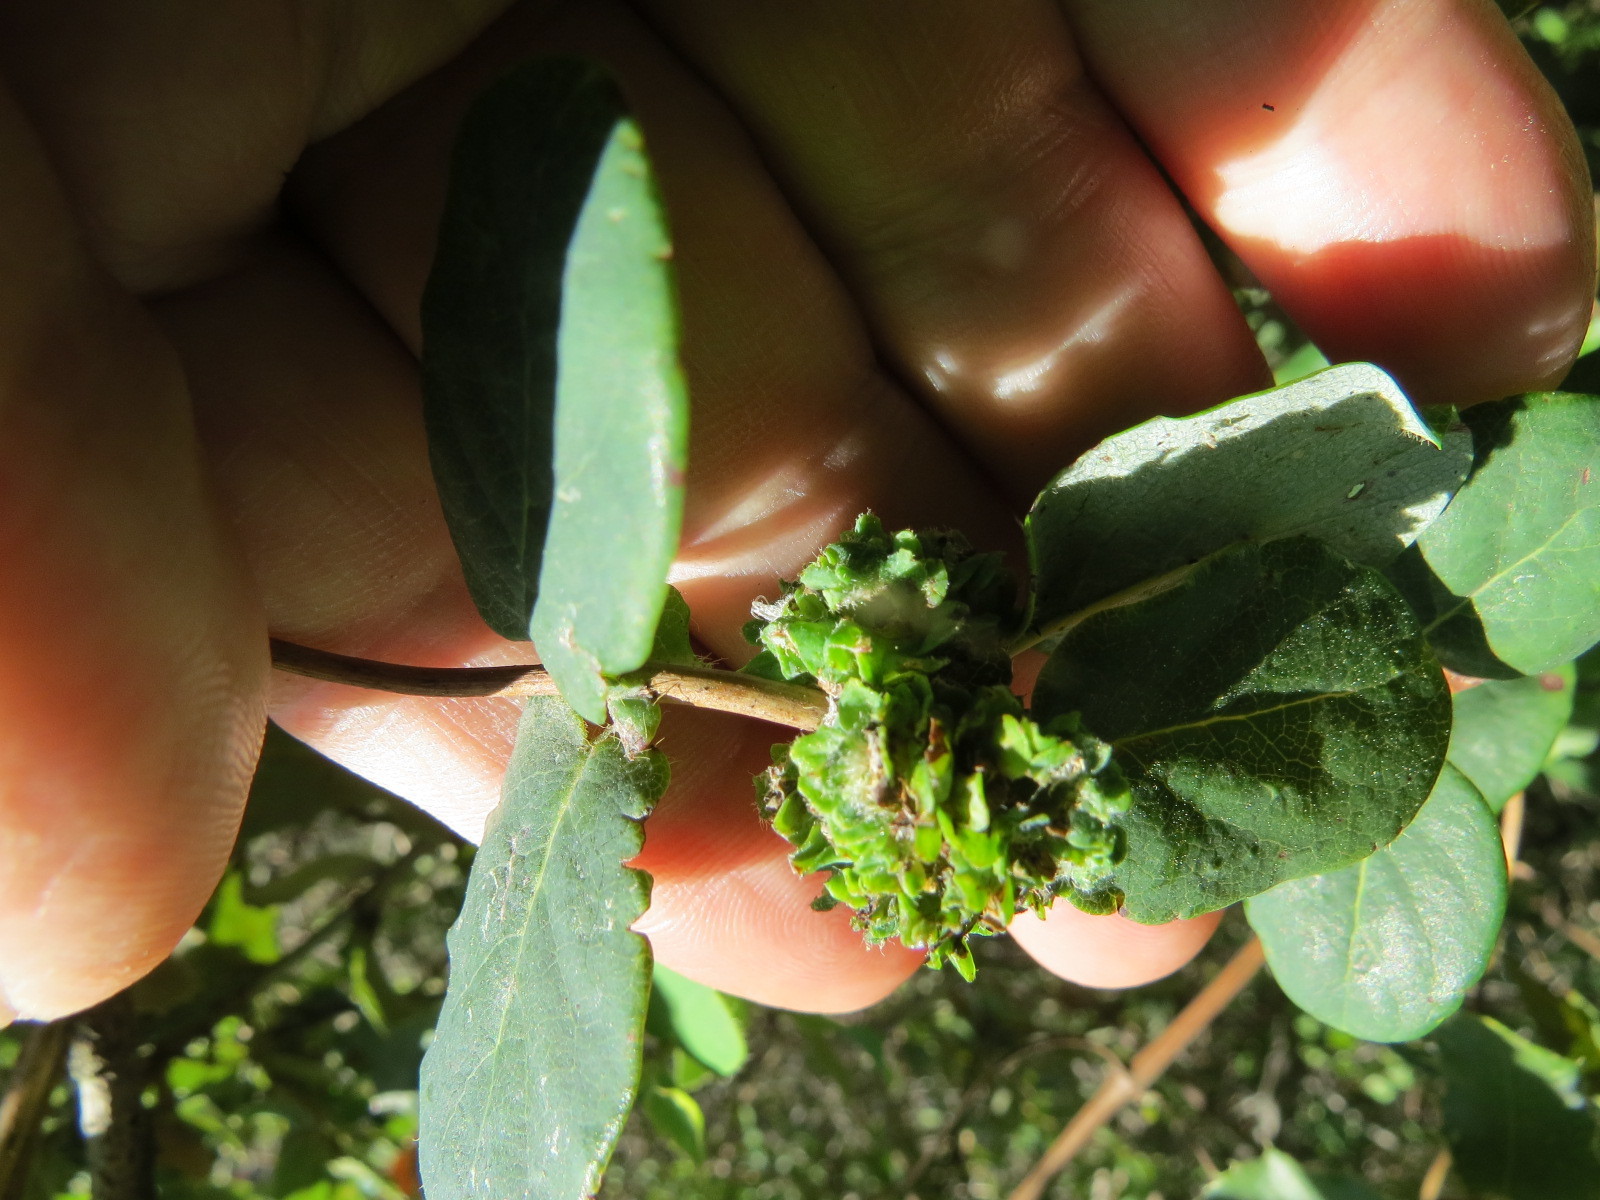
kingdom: Animalia
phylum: Arthropoda
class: Insecta
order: Diptera
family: Cecidomyiidae
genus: Lonicerae
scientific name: Lonicerae russoi
